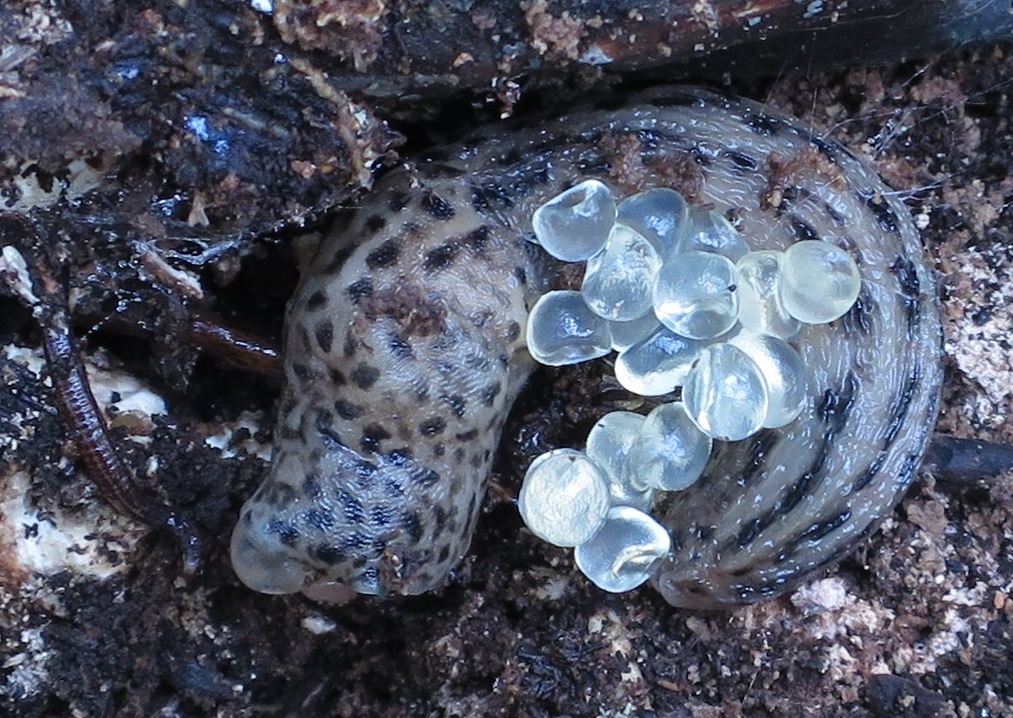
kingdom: Animalia
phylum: Mollusca
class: Gastropoda
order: Stylommatophora
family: Limacidae
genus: Limax
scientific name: Limax maximus
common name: Great grey slug
